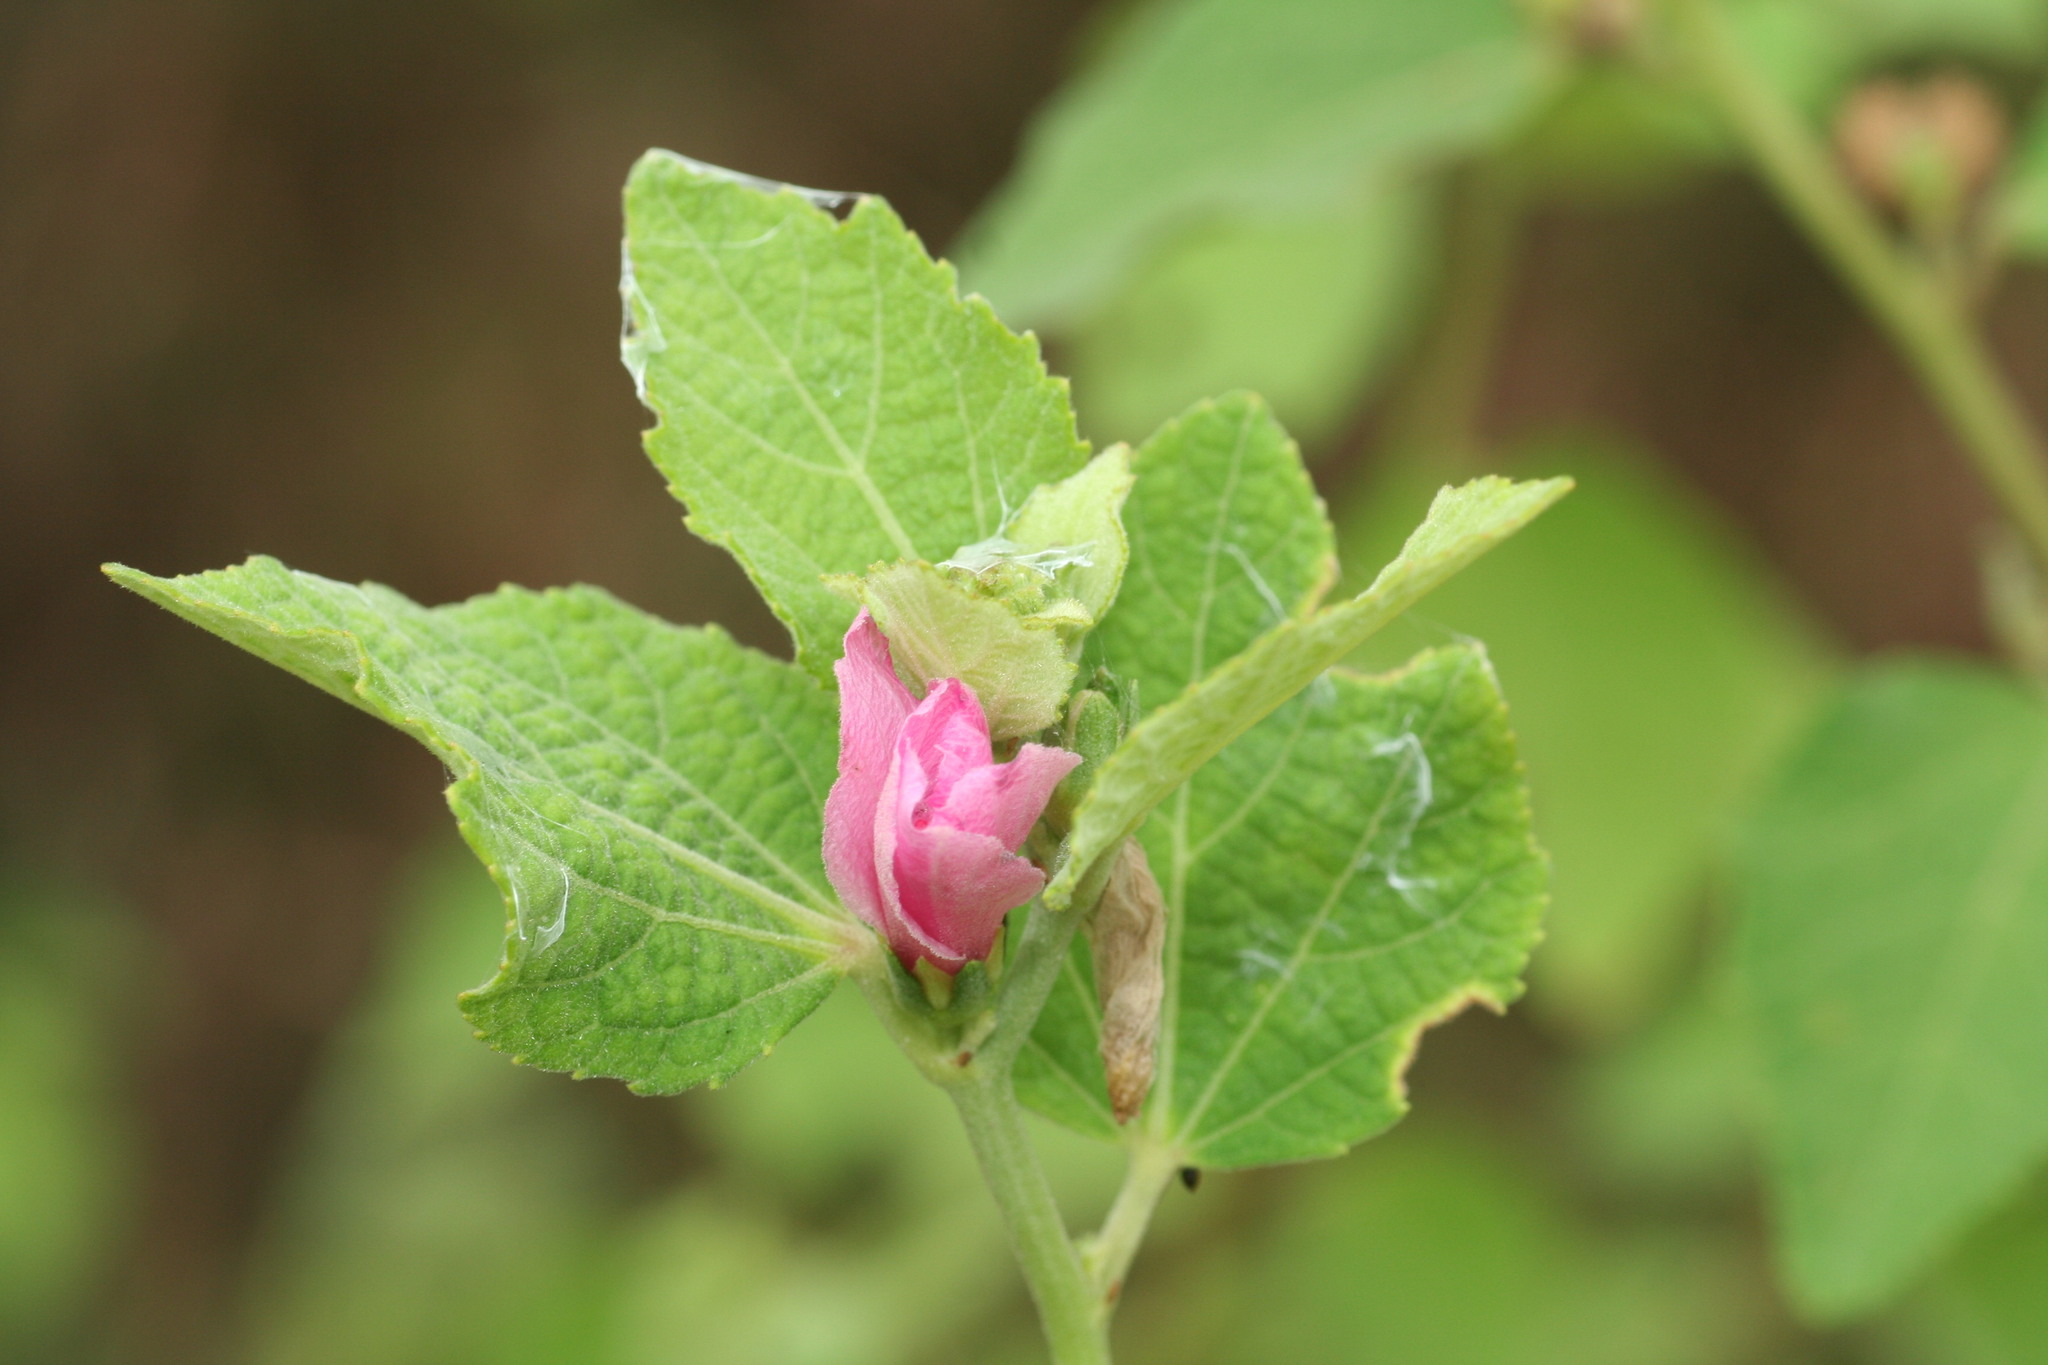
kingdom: Plantae
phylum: Tracheophyta
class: Magnoliopsida
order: Malvales
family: Malvaceae
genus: Urena
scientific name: Urena lobata
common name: Caesarweed
